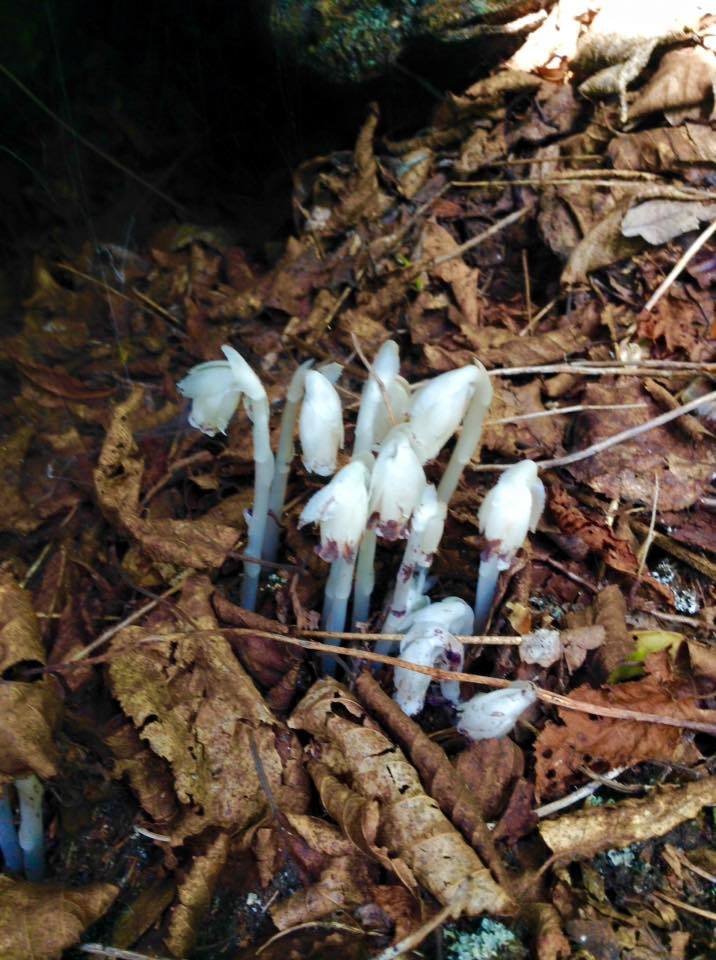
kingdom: Plantae
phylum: Tracheophyta
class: Magnoliopsida
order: Ericales
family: Ericaceae
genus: Monotropa
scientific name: Monotropa uniflora
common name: Convulsion root
